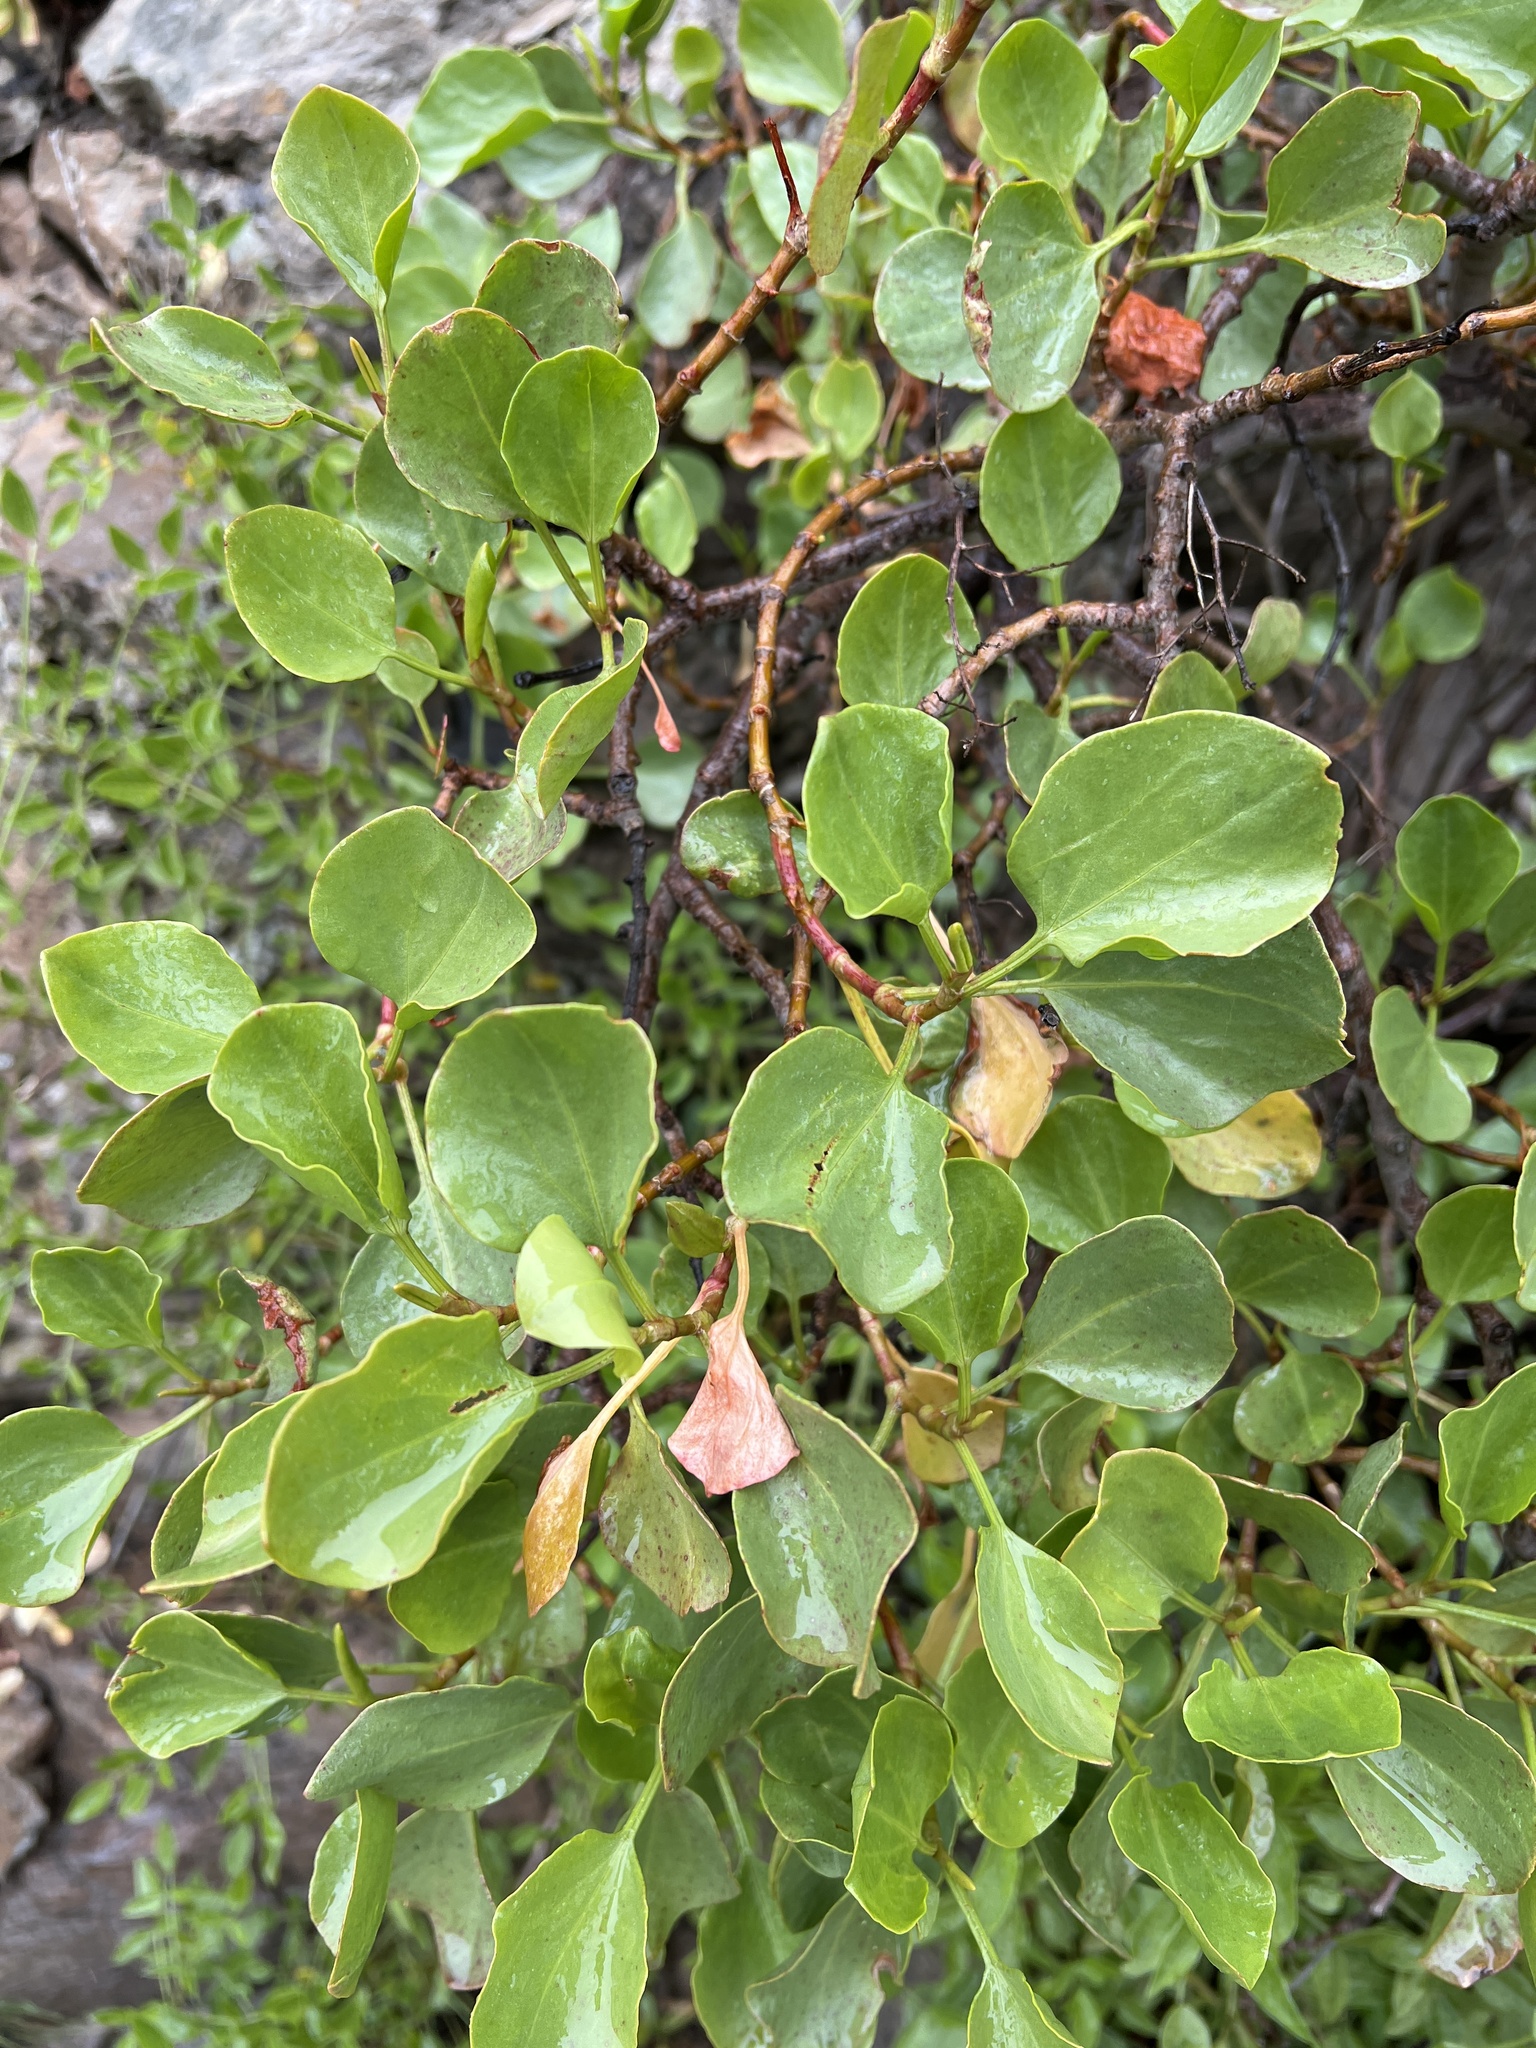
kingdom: Plantae
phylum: Tracheophyta
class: Magnoliopsida
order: Caryophyllales
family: Polygonaceae
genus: Rumex
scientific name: Rumex lunaria
